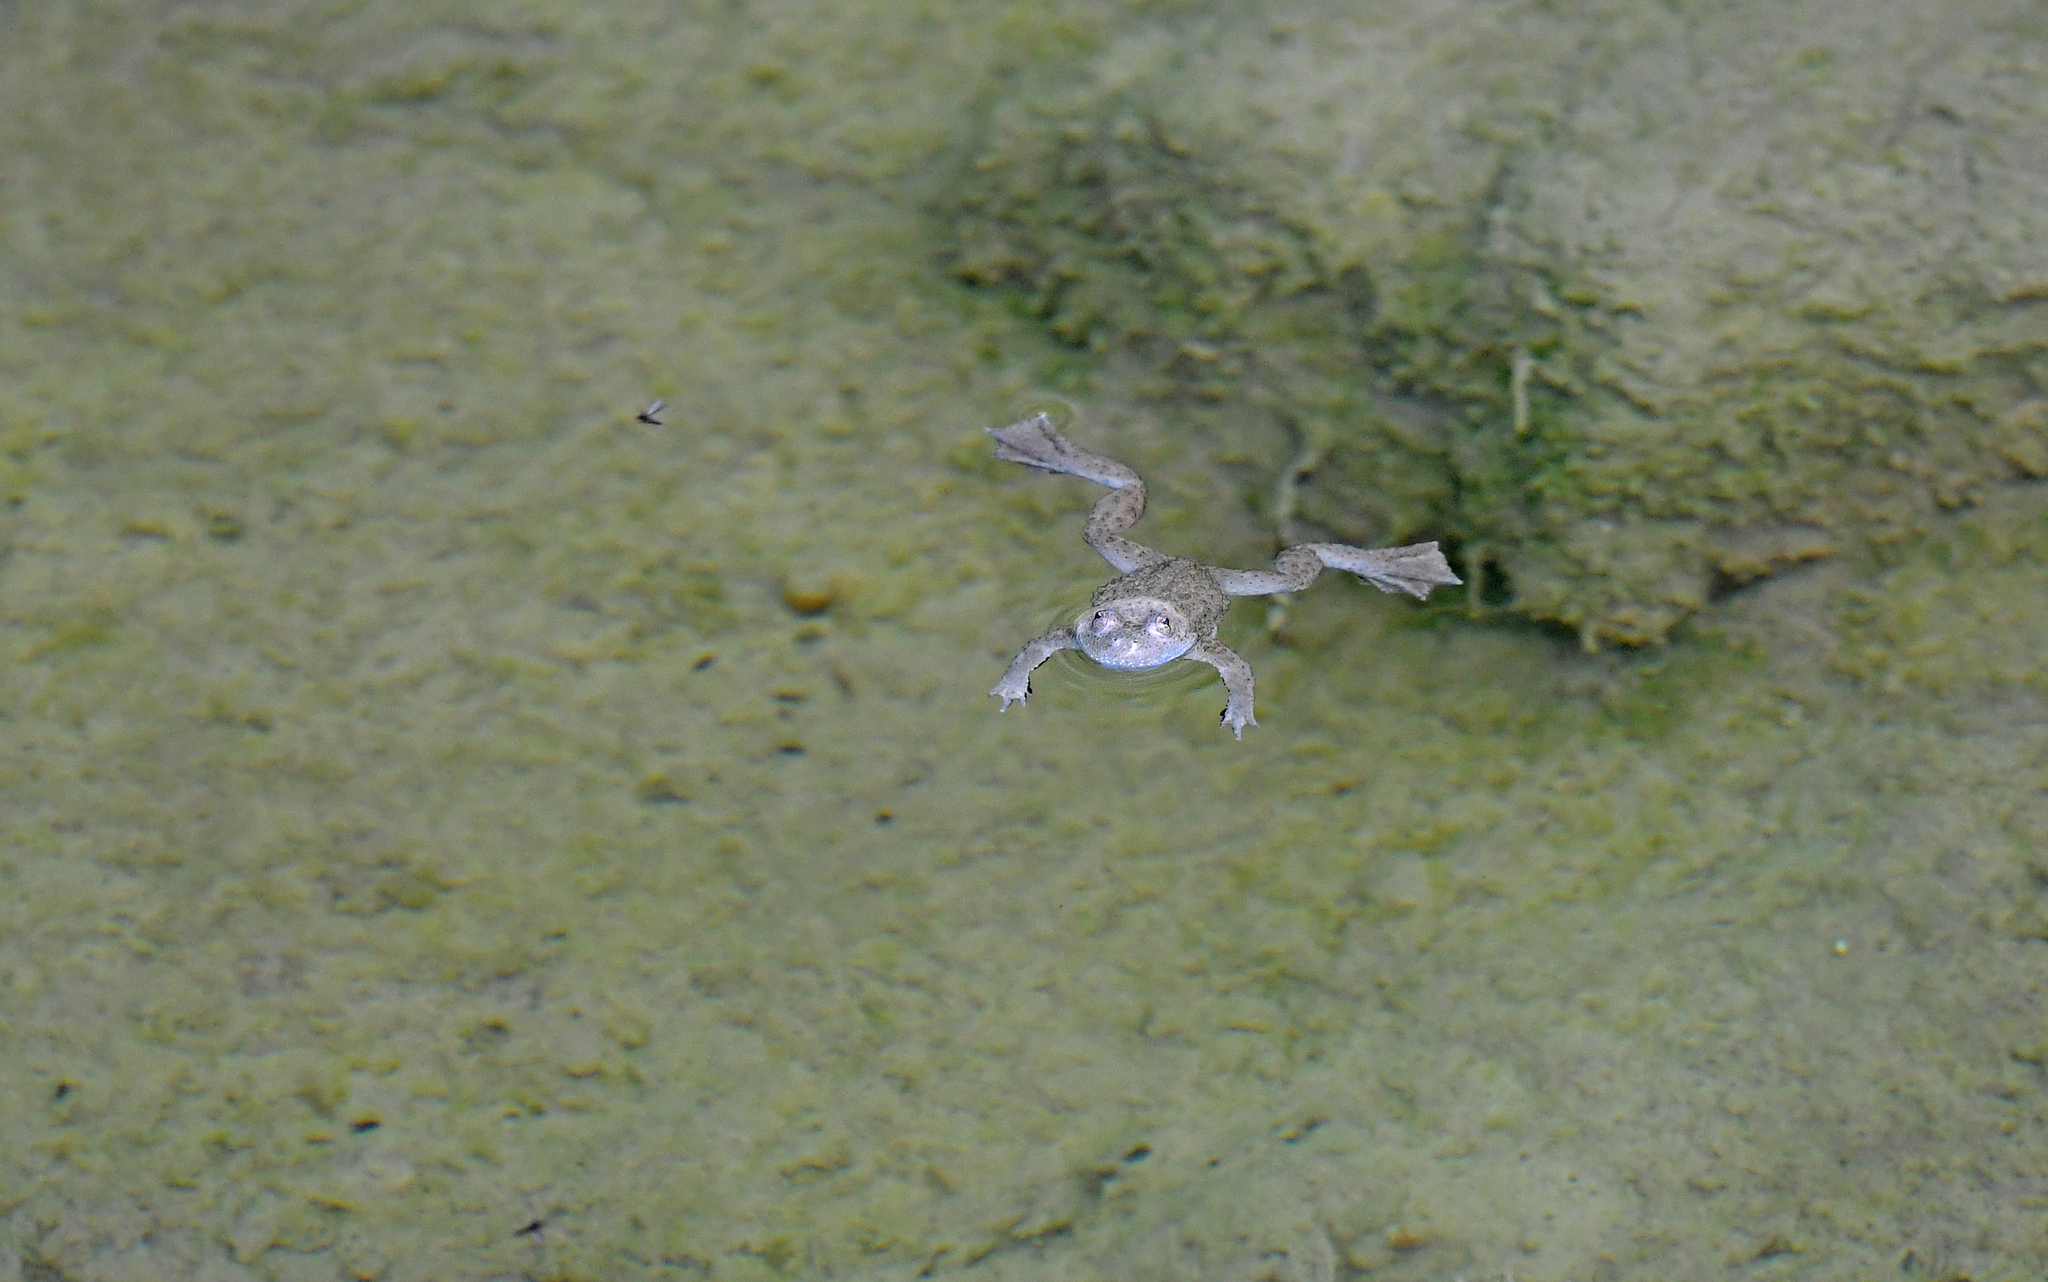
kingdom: Animalia
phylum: Chordata
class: Amphibia
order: Anura
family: Bombinatoridae
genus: Bombina
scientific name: Bombina variegata
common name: Yellow-bellied toad
